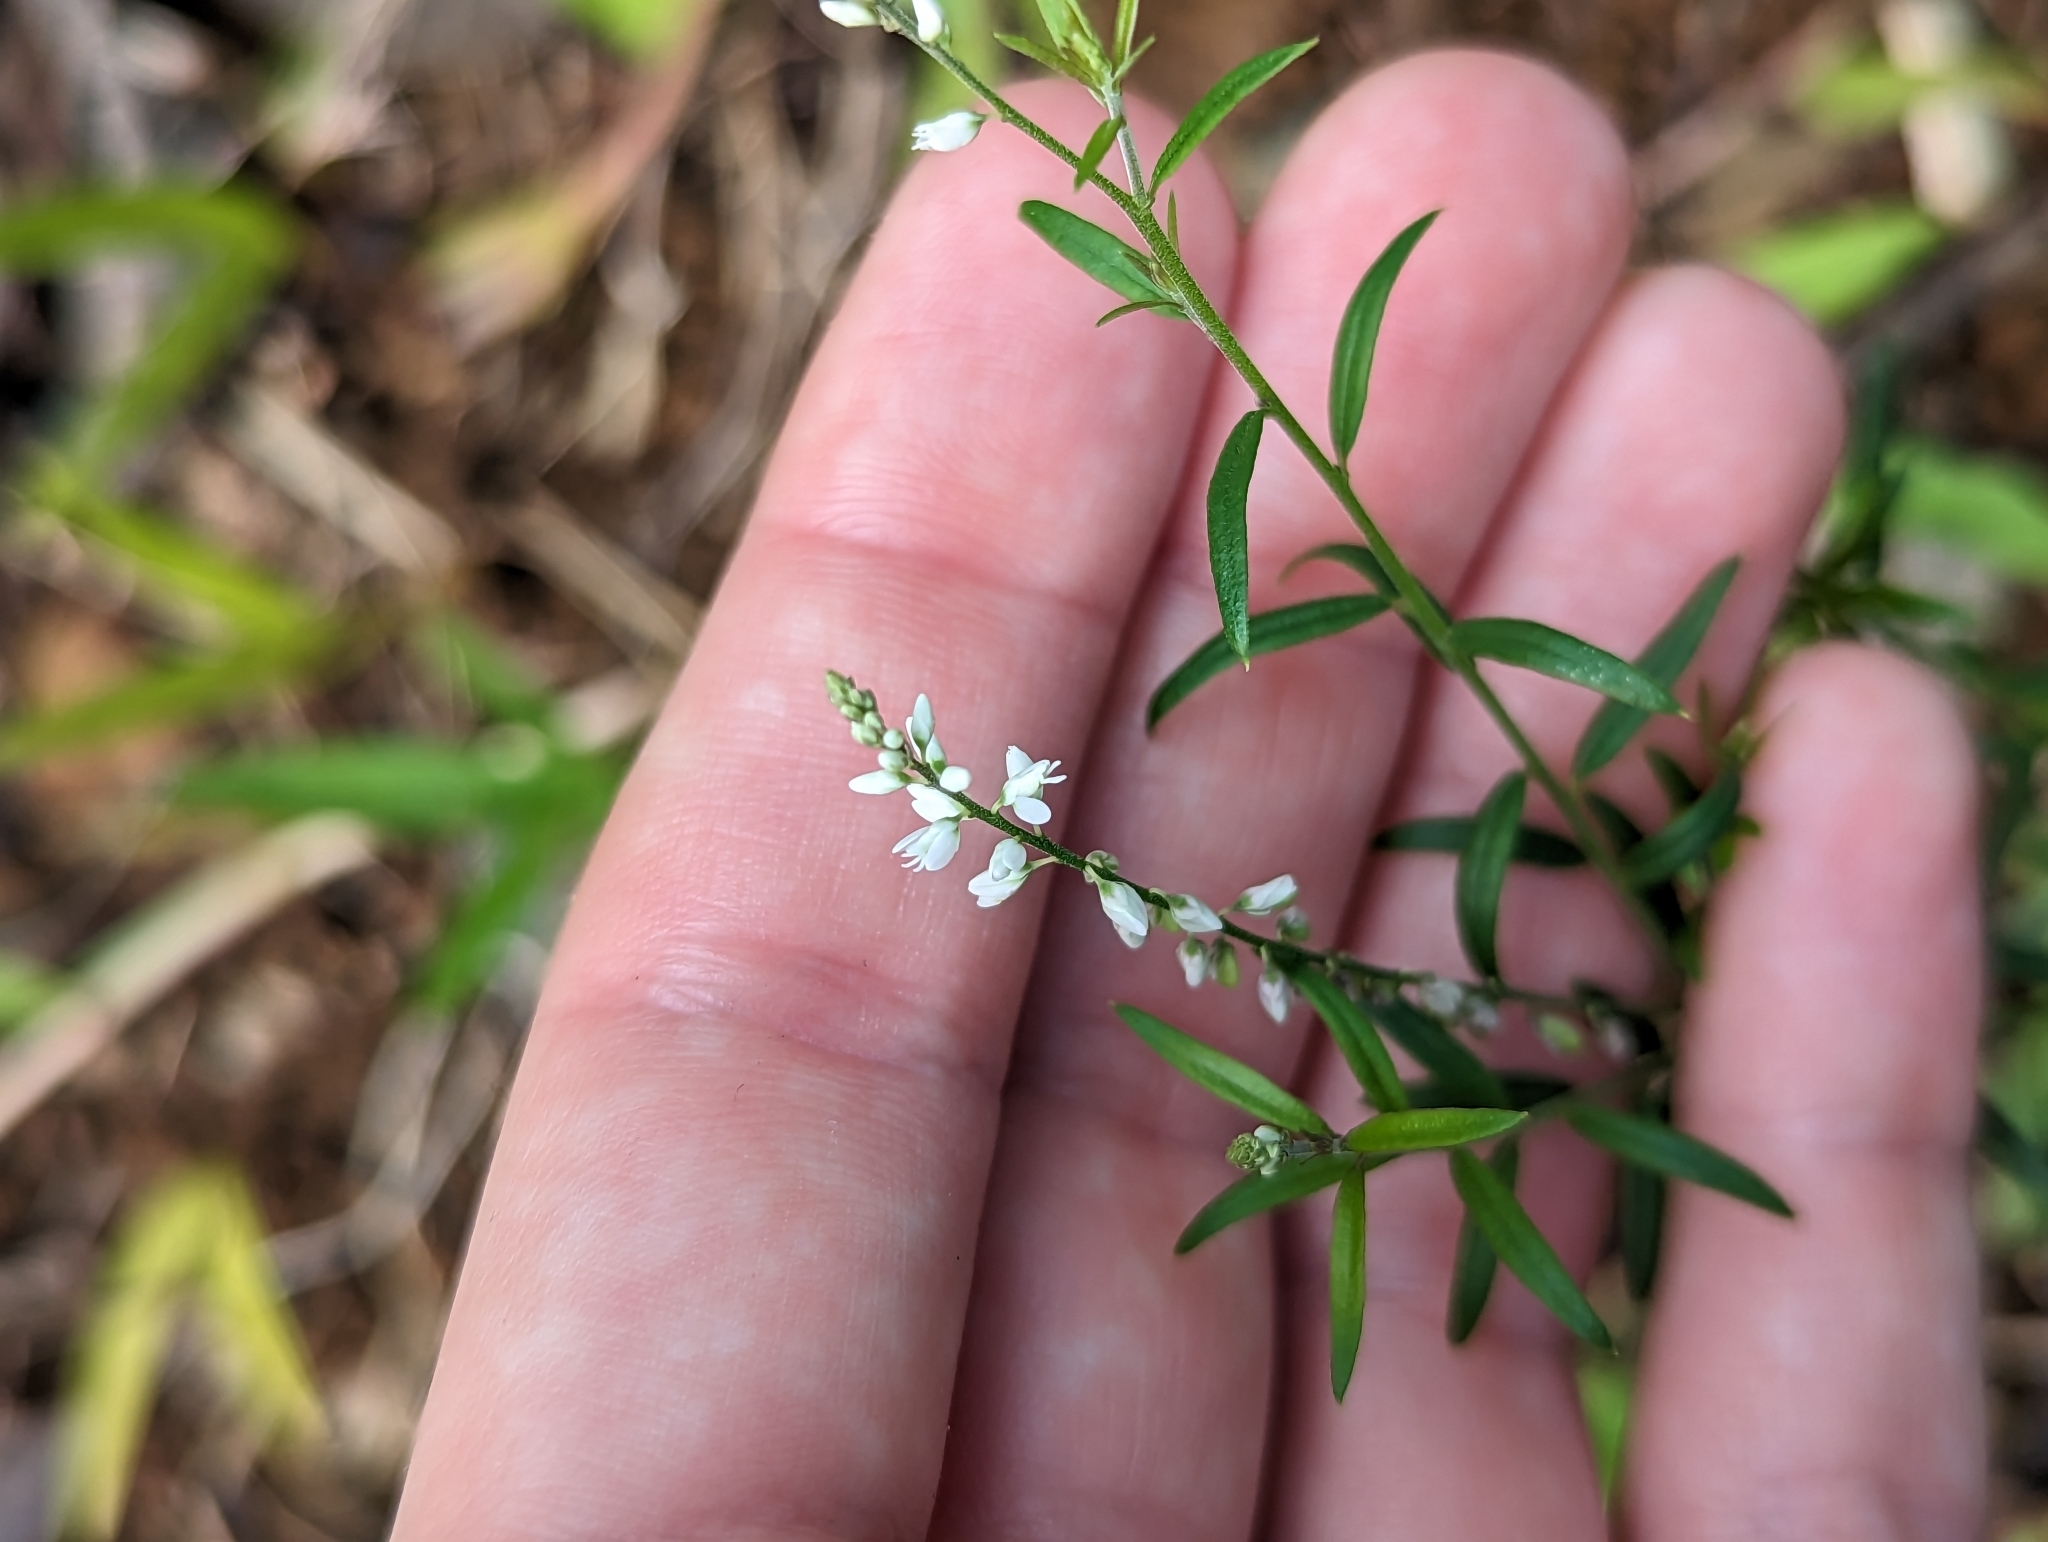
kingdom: Plantae
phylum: Tracheophyta
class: Magnoliopsida
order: Fabales
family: Polygalaceae
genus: Polygala
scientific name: Polygala paniculata
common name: Orosne
